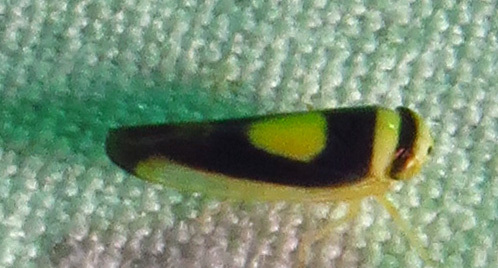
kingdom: Animalia
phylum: Arthropoda
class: Insecta
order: Hemiptera
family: Cicadellidae
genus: Colladonus
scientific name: Colladonus clitellarius
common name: The saddleback leafhopper
